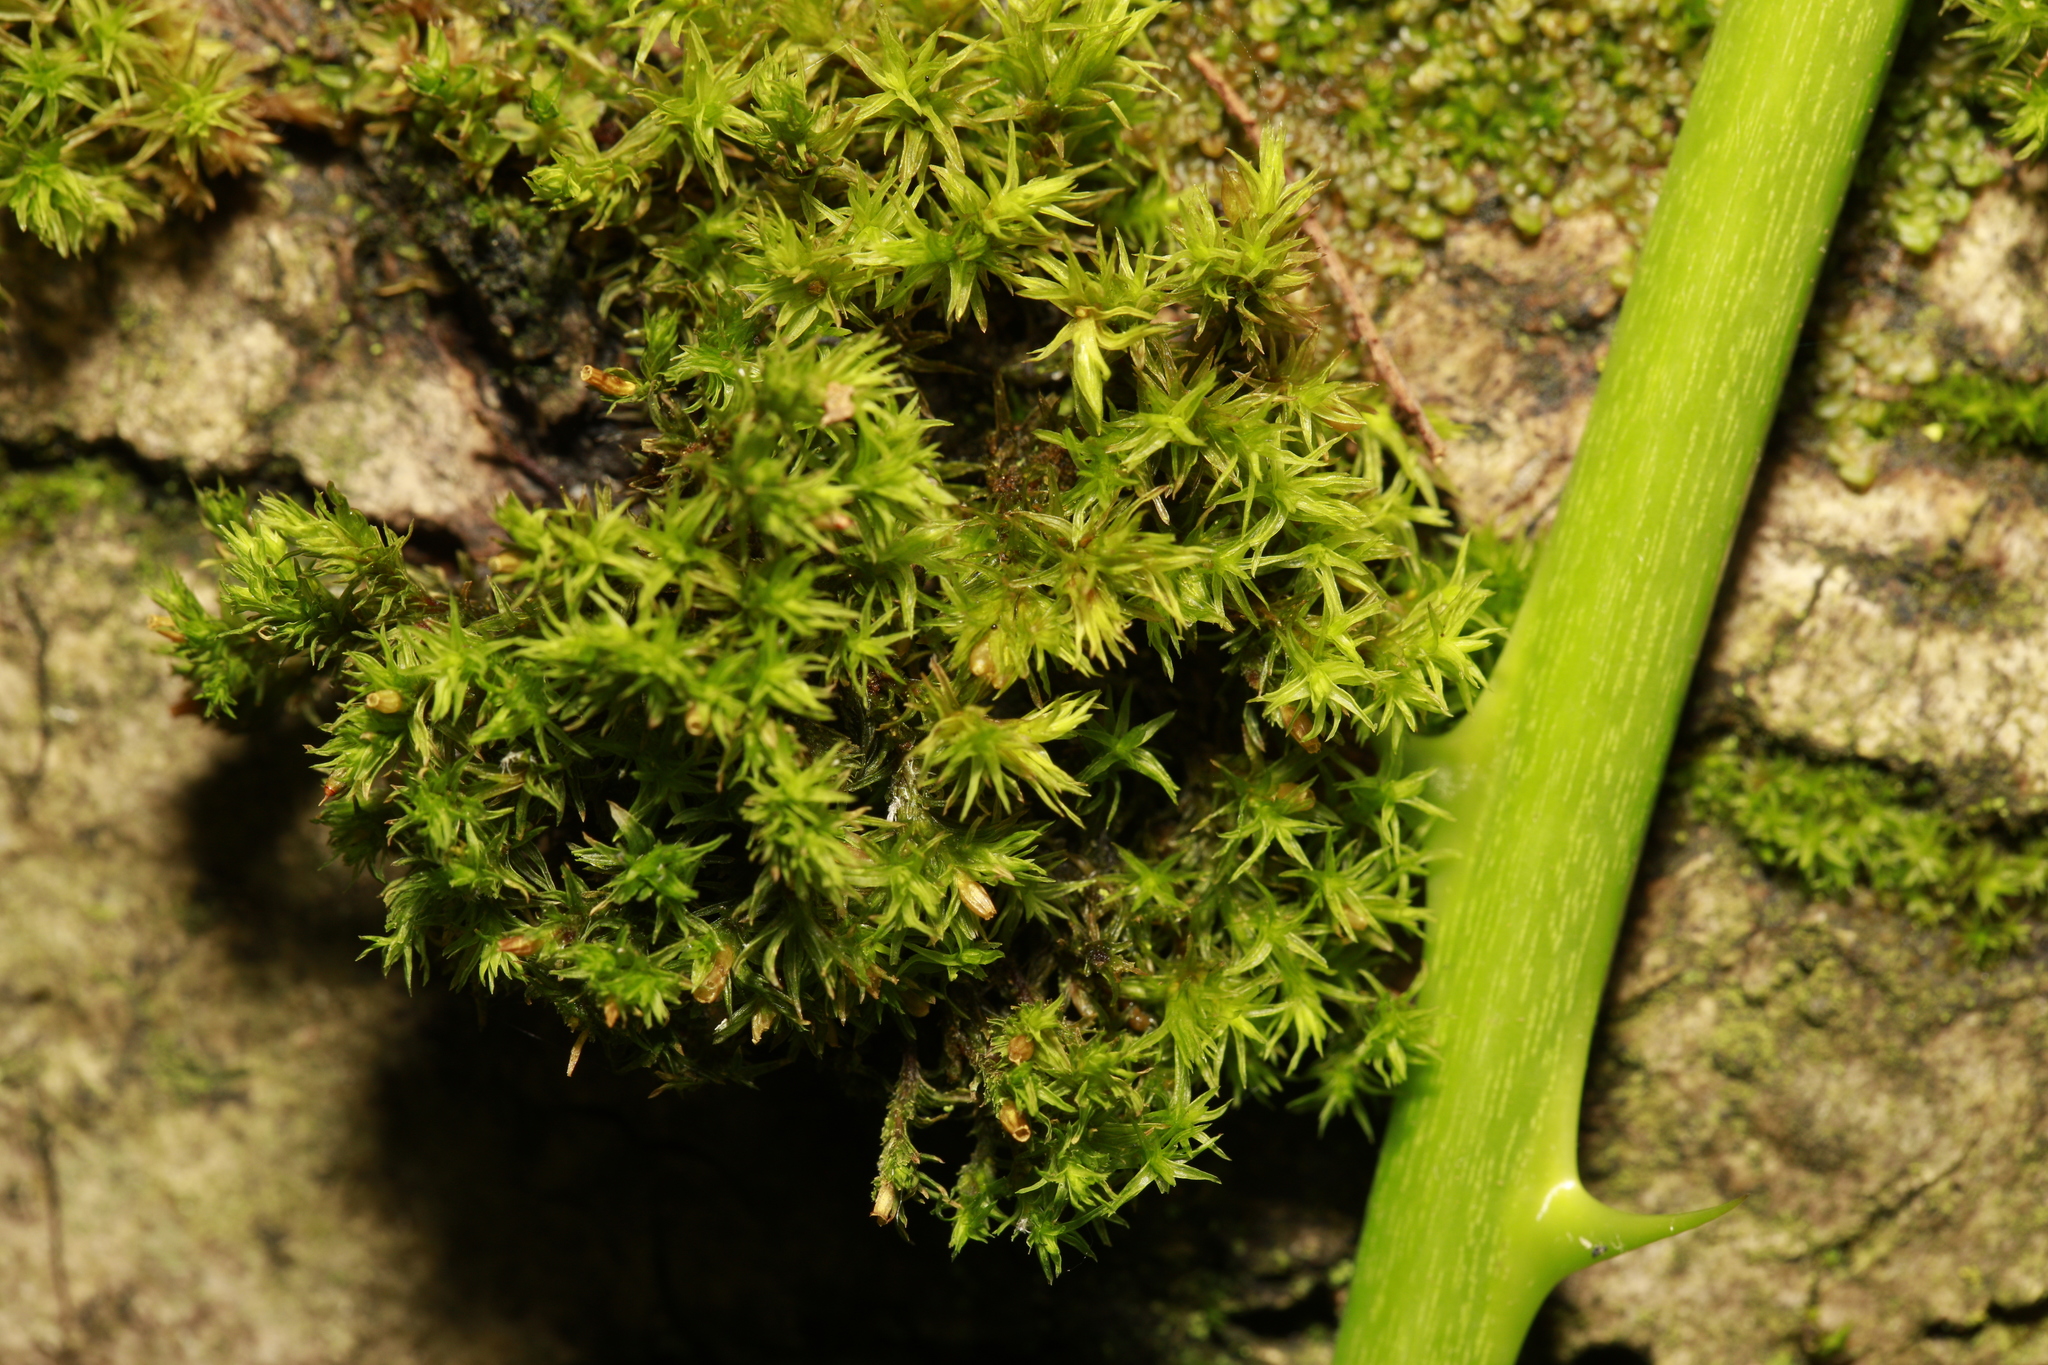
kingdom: Plantae
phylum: Bryophyta
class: Bryopsida
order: Orthotrichales
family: Orthotrichaceae
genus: Lewinskya
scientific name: Lewinskya affinis
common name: Wood bristle-moss
